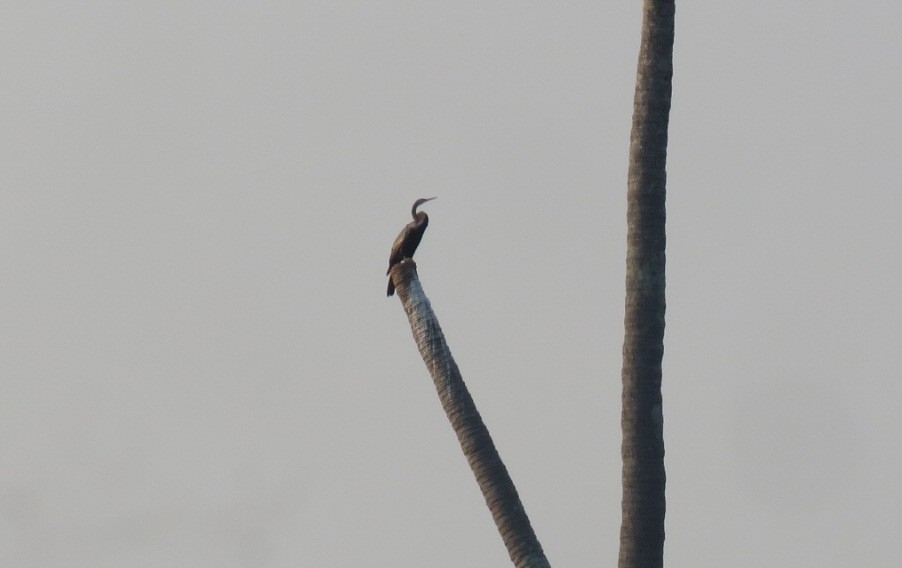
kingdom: Animalia
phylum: Chordata
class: Aves
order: Suliformes
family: Anhingidae
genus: Anhinga
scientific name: Anhinga melanogaster
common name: Oriental darter
